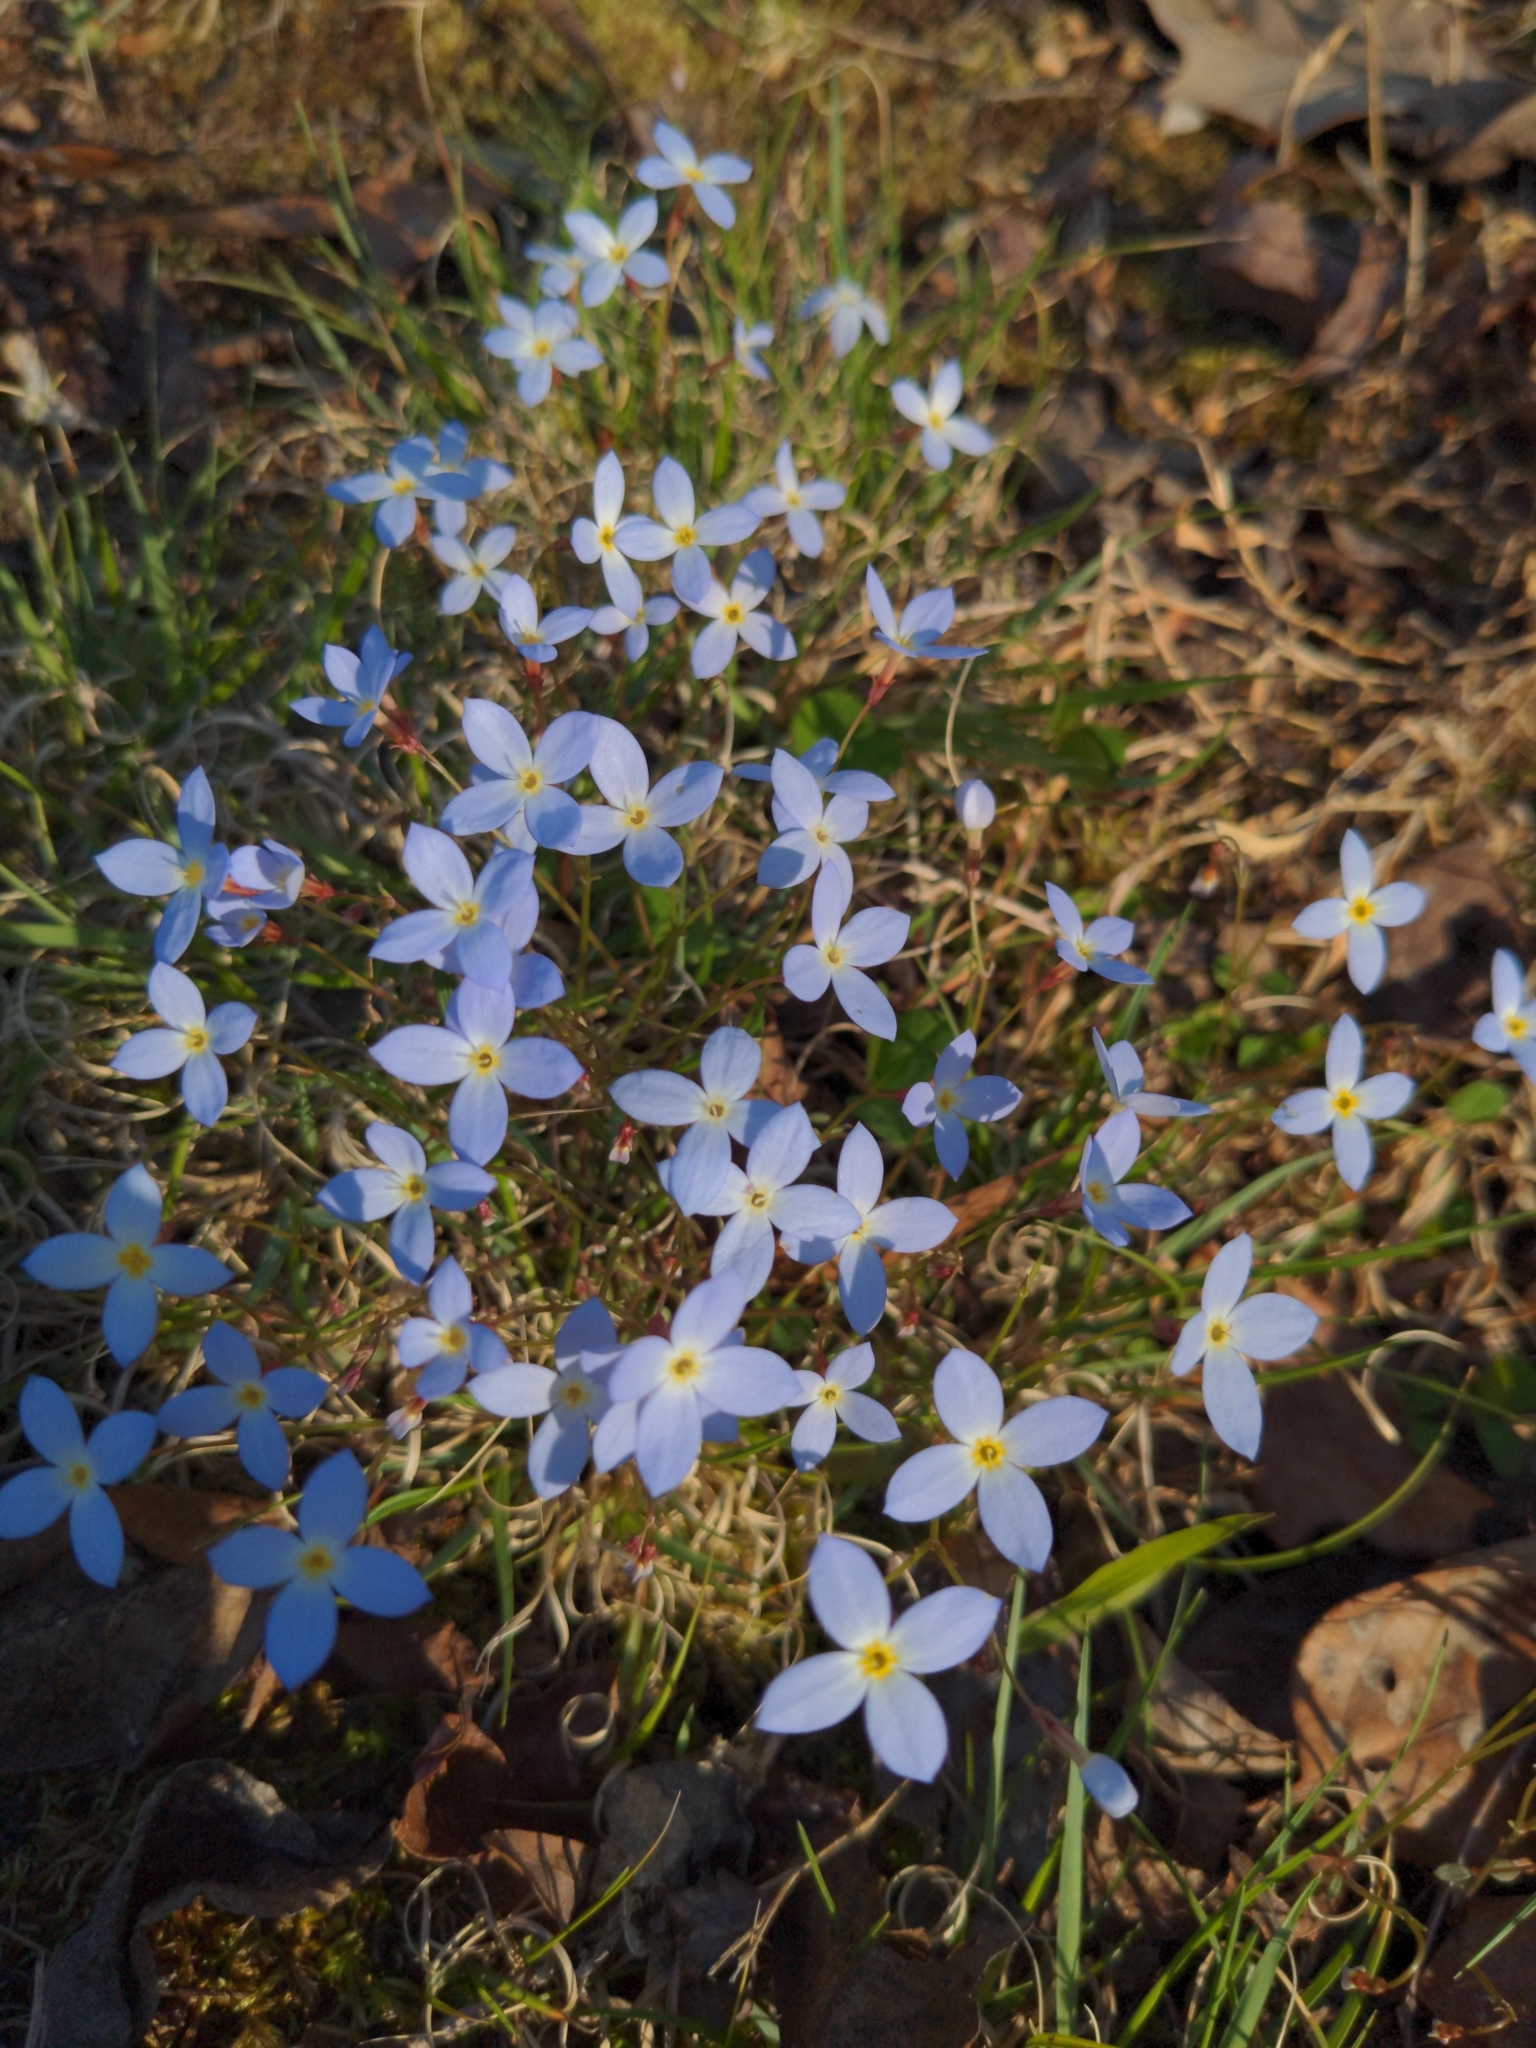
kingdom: Plantae
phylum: Tracheophyta
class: Magnoliopsida
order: Gentianales
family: Rubiaceae
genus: Houstonia
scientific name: Houstonia caerulea
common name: Bluets
